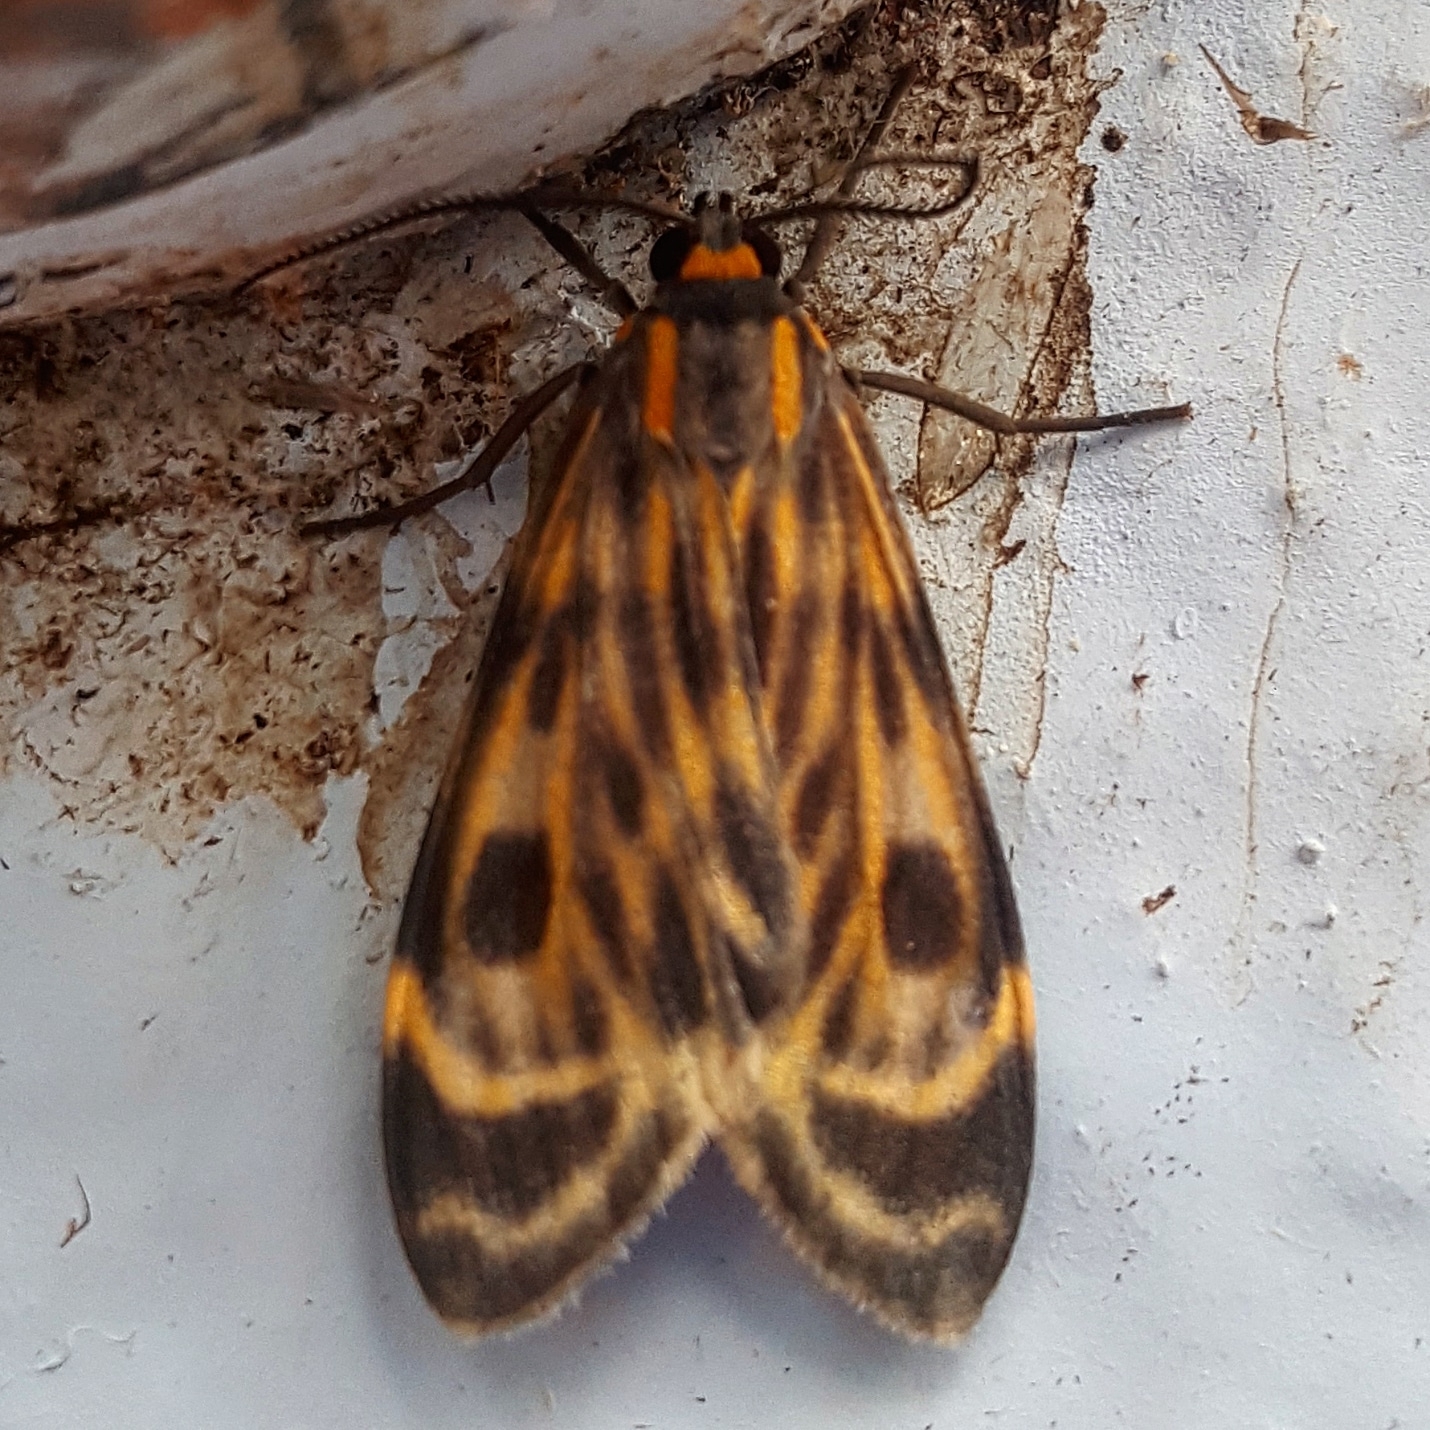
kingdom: Animalia
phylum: Arthropoda
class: Insecta
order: Lepidoptera
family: Erebidae
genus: Eucereon
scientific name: Eucereon phaeoproctum
